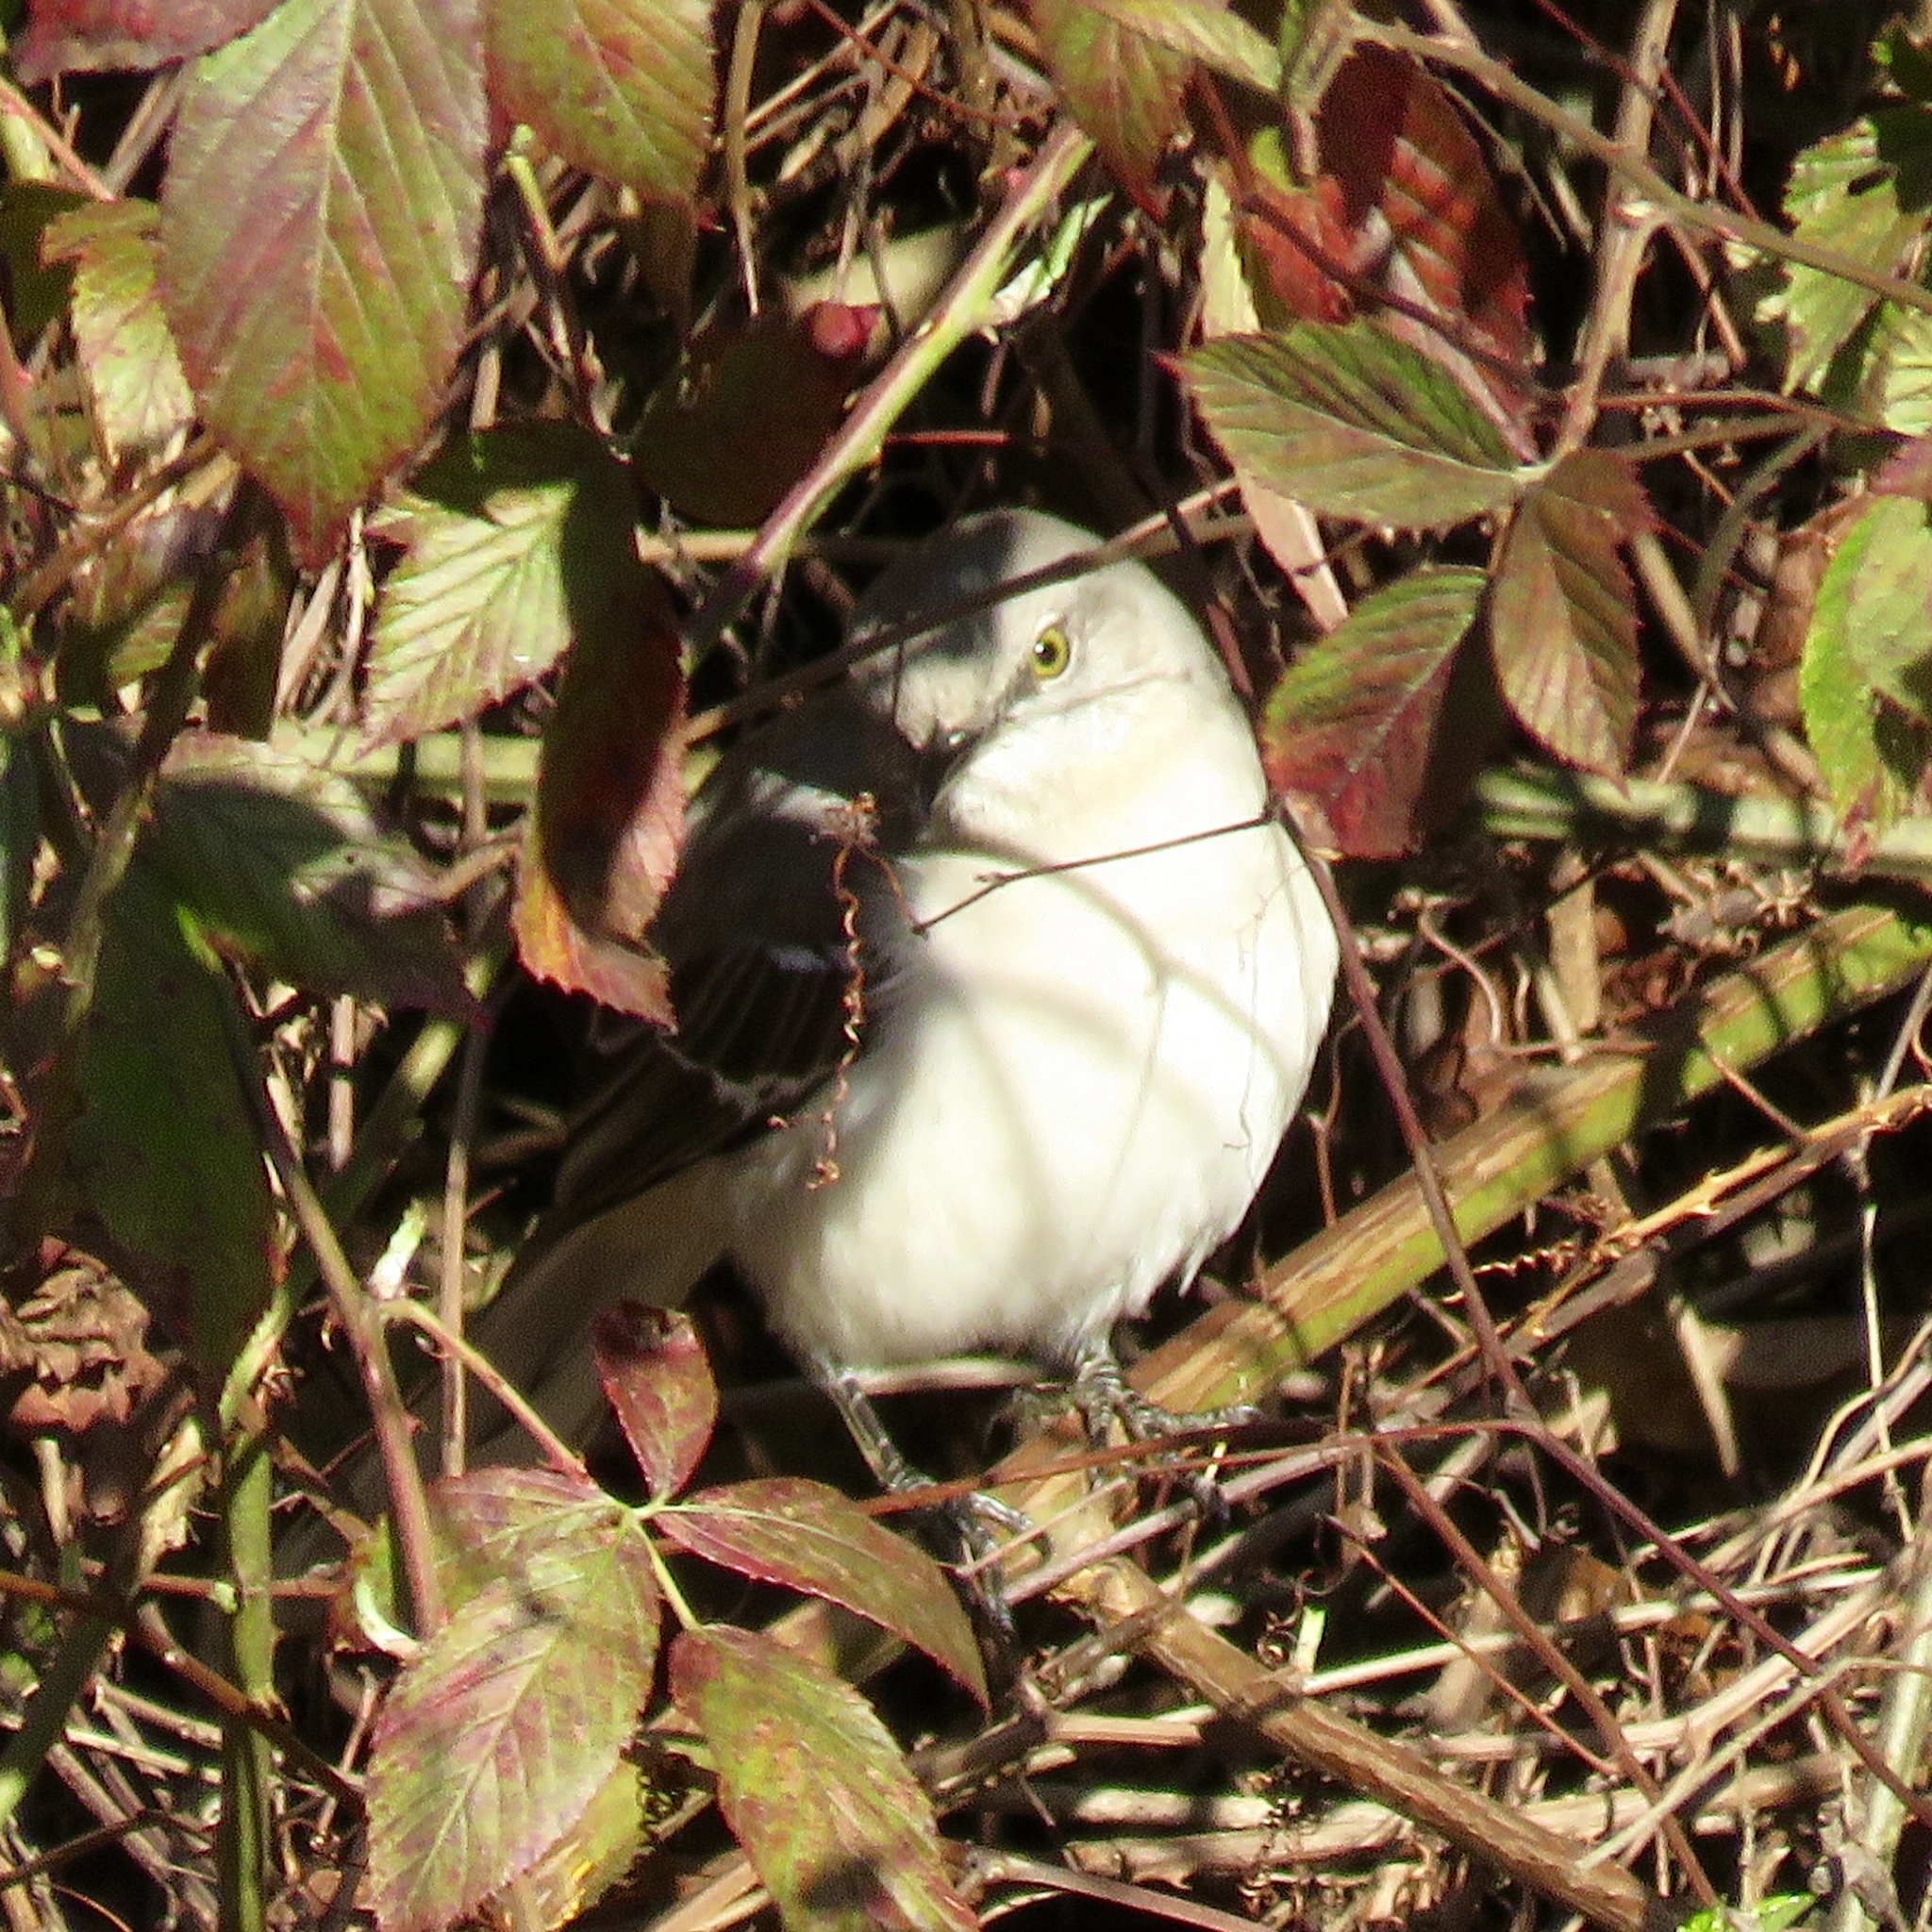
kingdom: Animalia
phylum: Chordata
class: Aves
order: Passeriformes
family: Mimidae
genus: Mimus
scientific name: Mimus polyglottos
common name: Northern mockingbird
